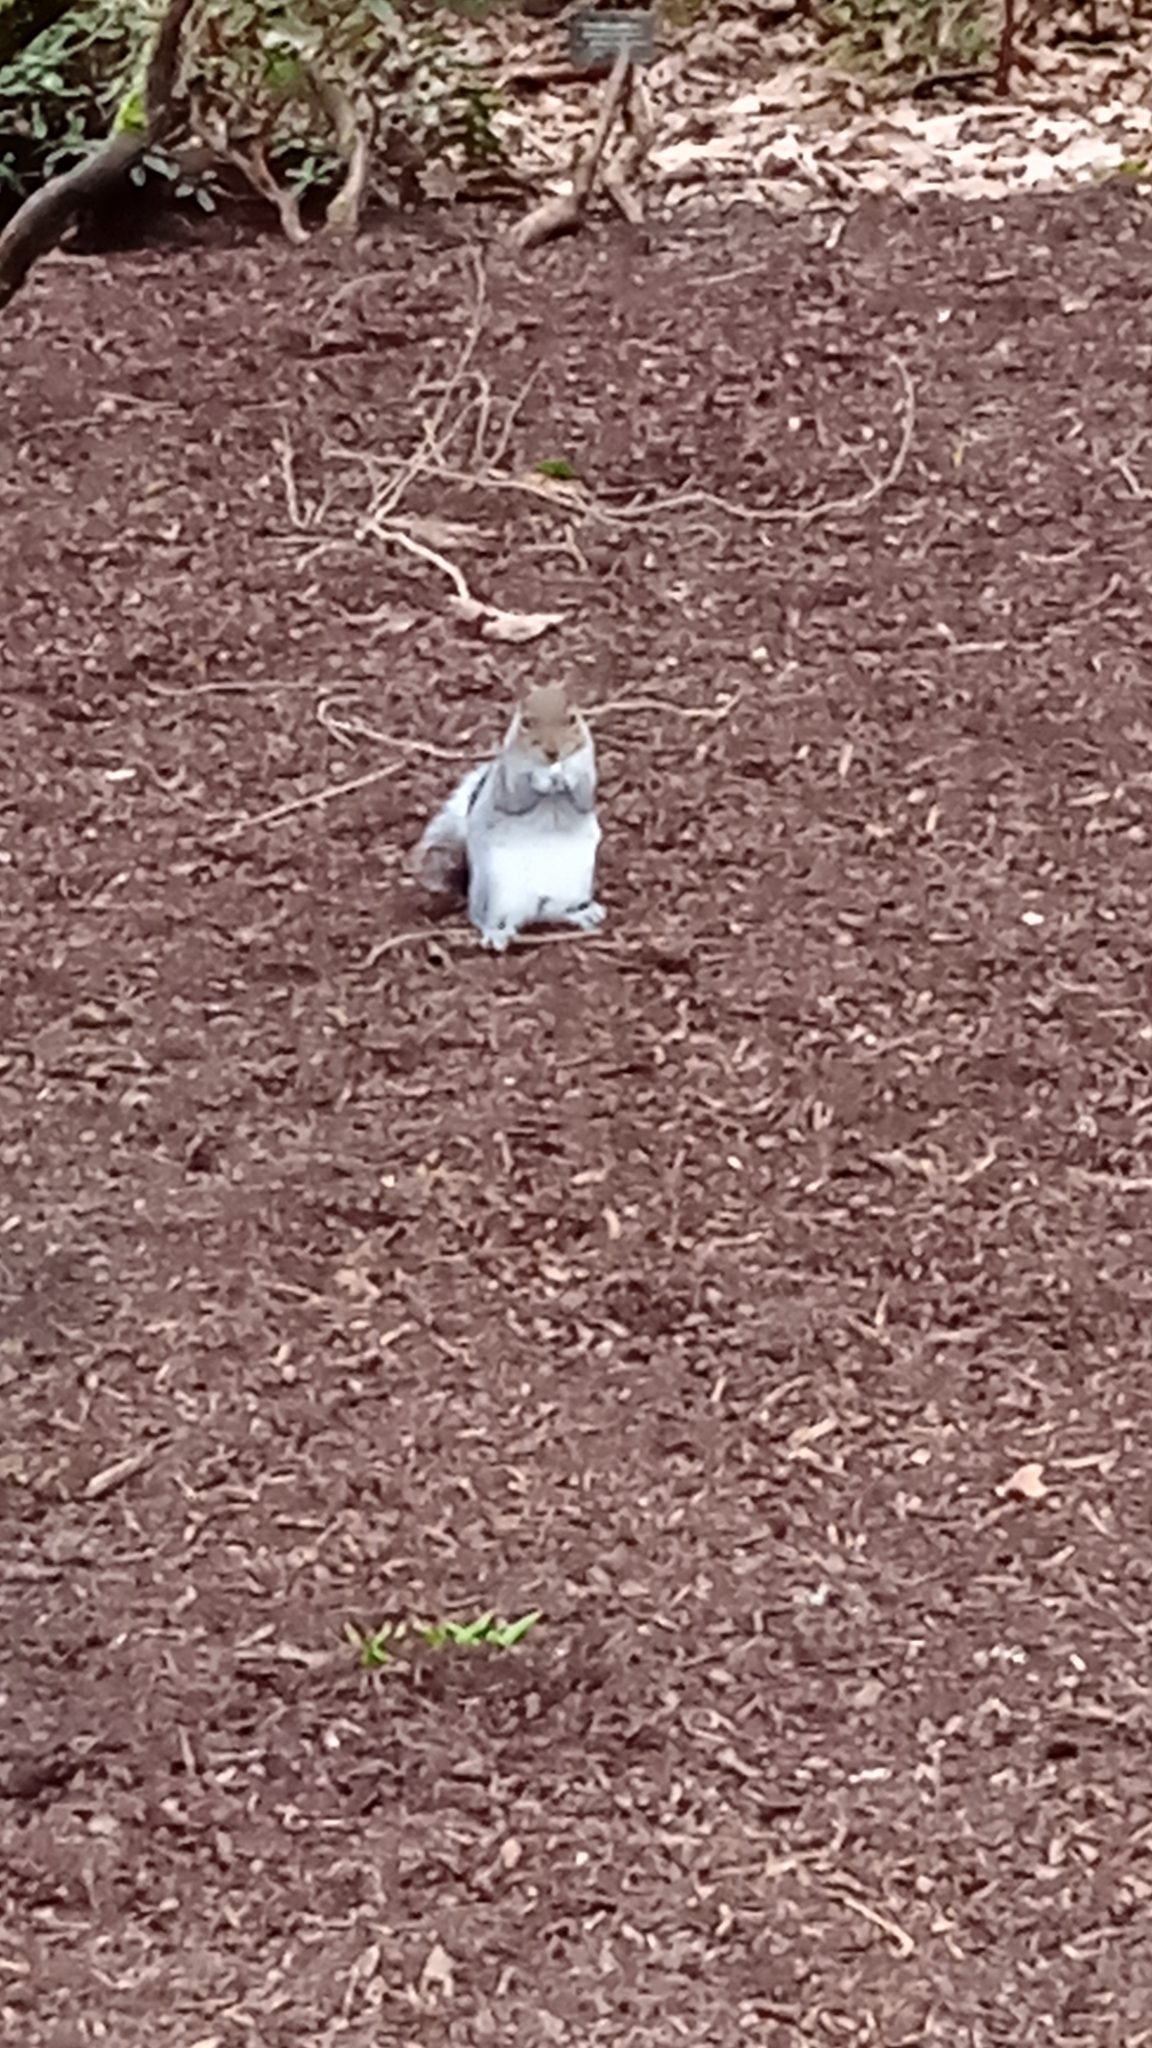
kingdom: Animalia
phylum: Chordata
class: Mammalia
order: Rodentia
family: Sciuridae
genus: Sciurus
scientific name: Sciurus carolinensis
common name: Eastern gray squirrel
